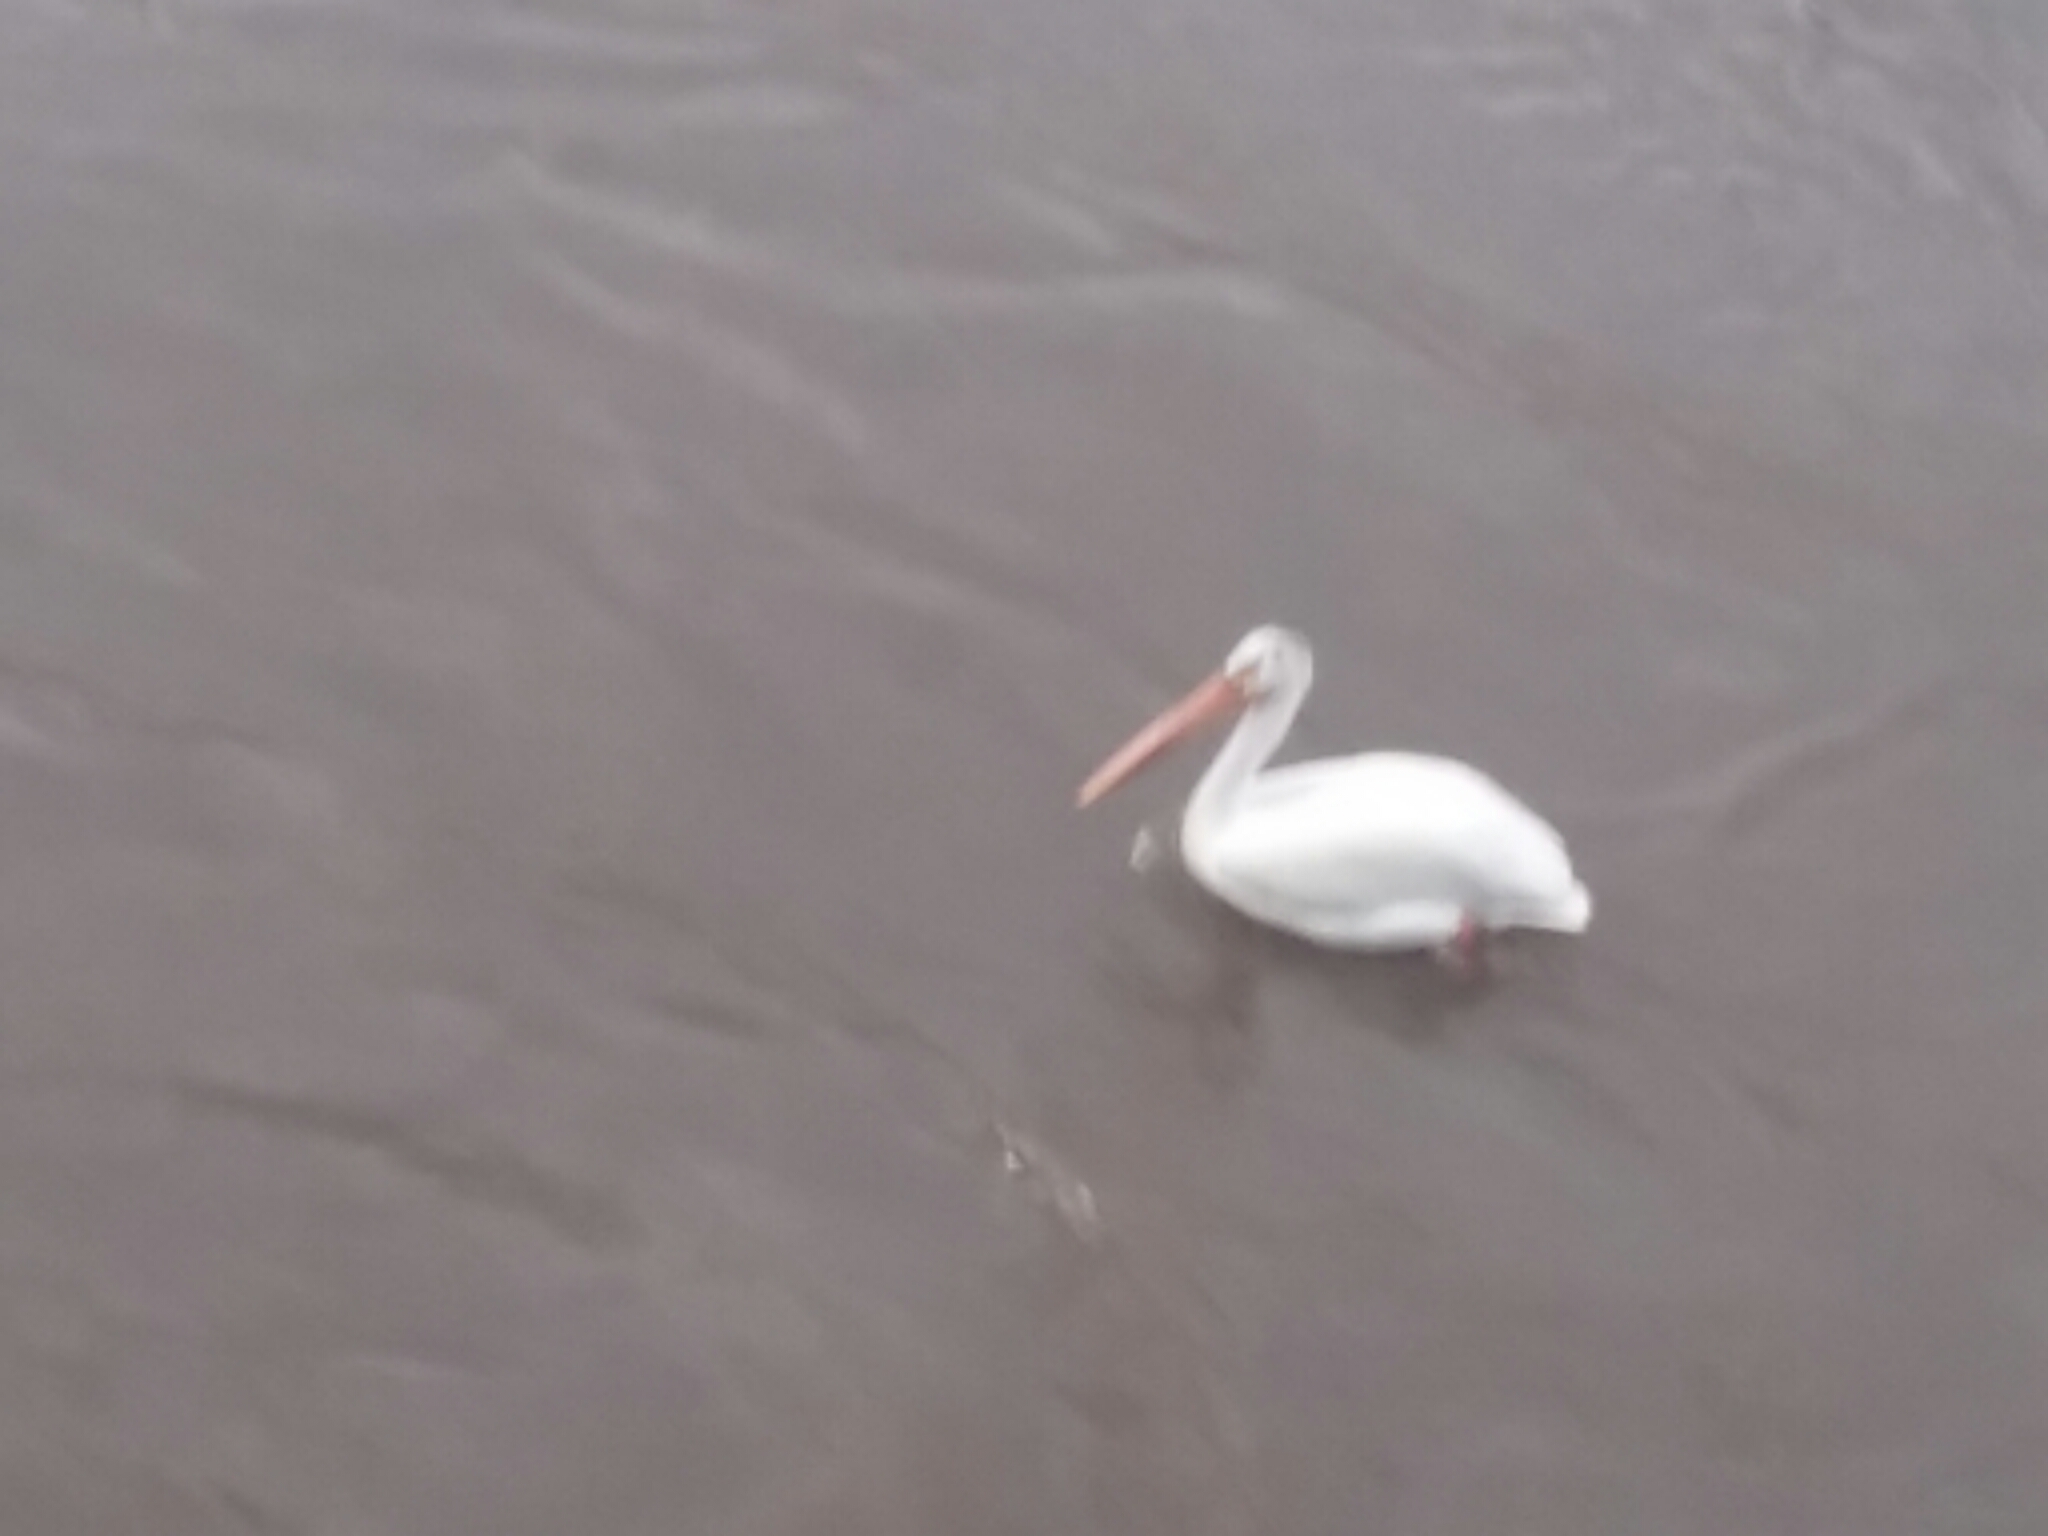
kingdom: Animalia
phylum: Chordata
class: Aves
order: Pelecaniformes
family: Pelecanidae
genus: Pelecanus
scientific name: Pelecanus erythrorhynchos
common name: American white pelican
